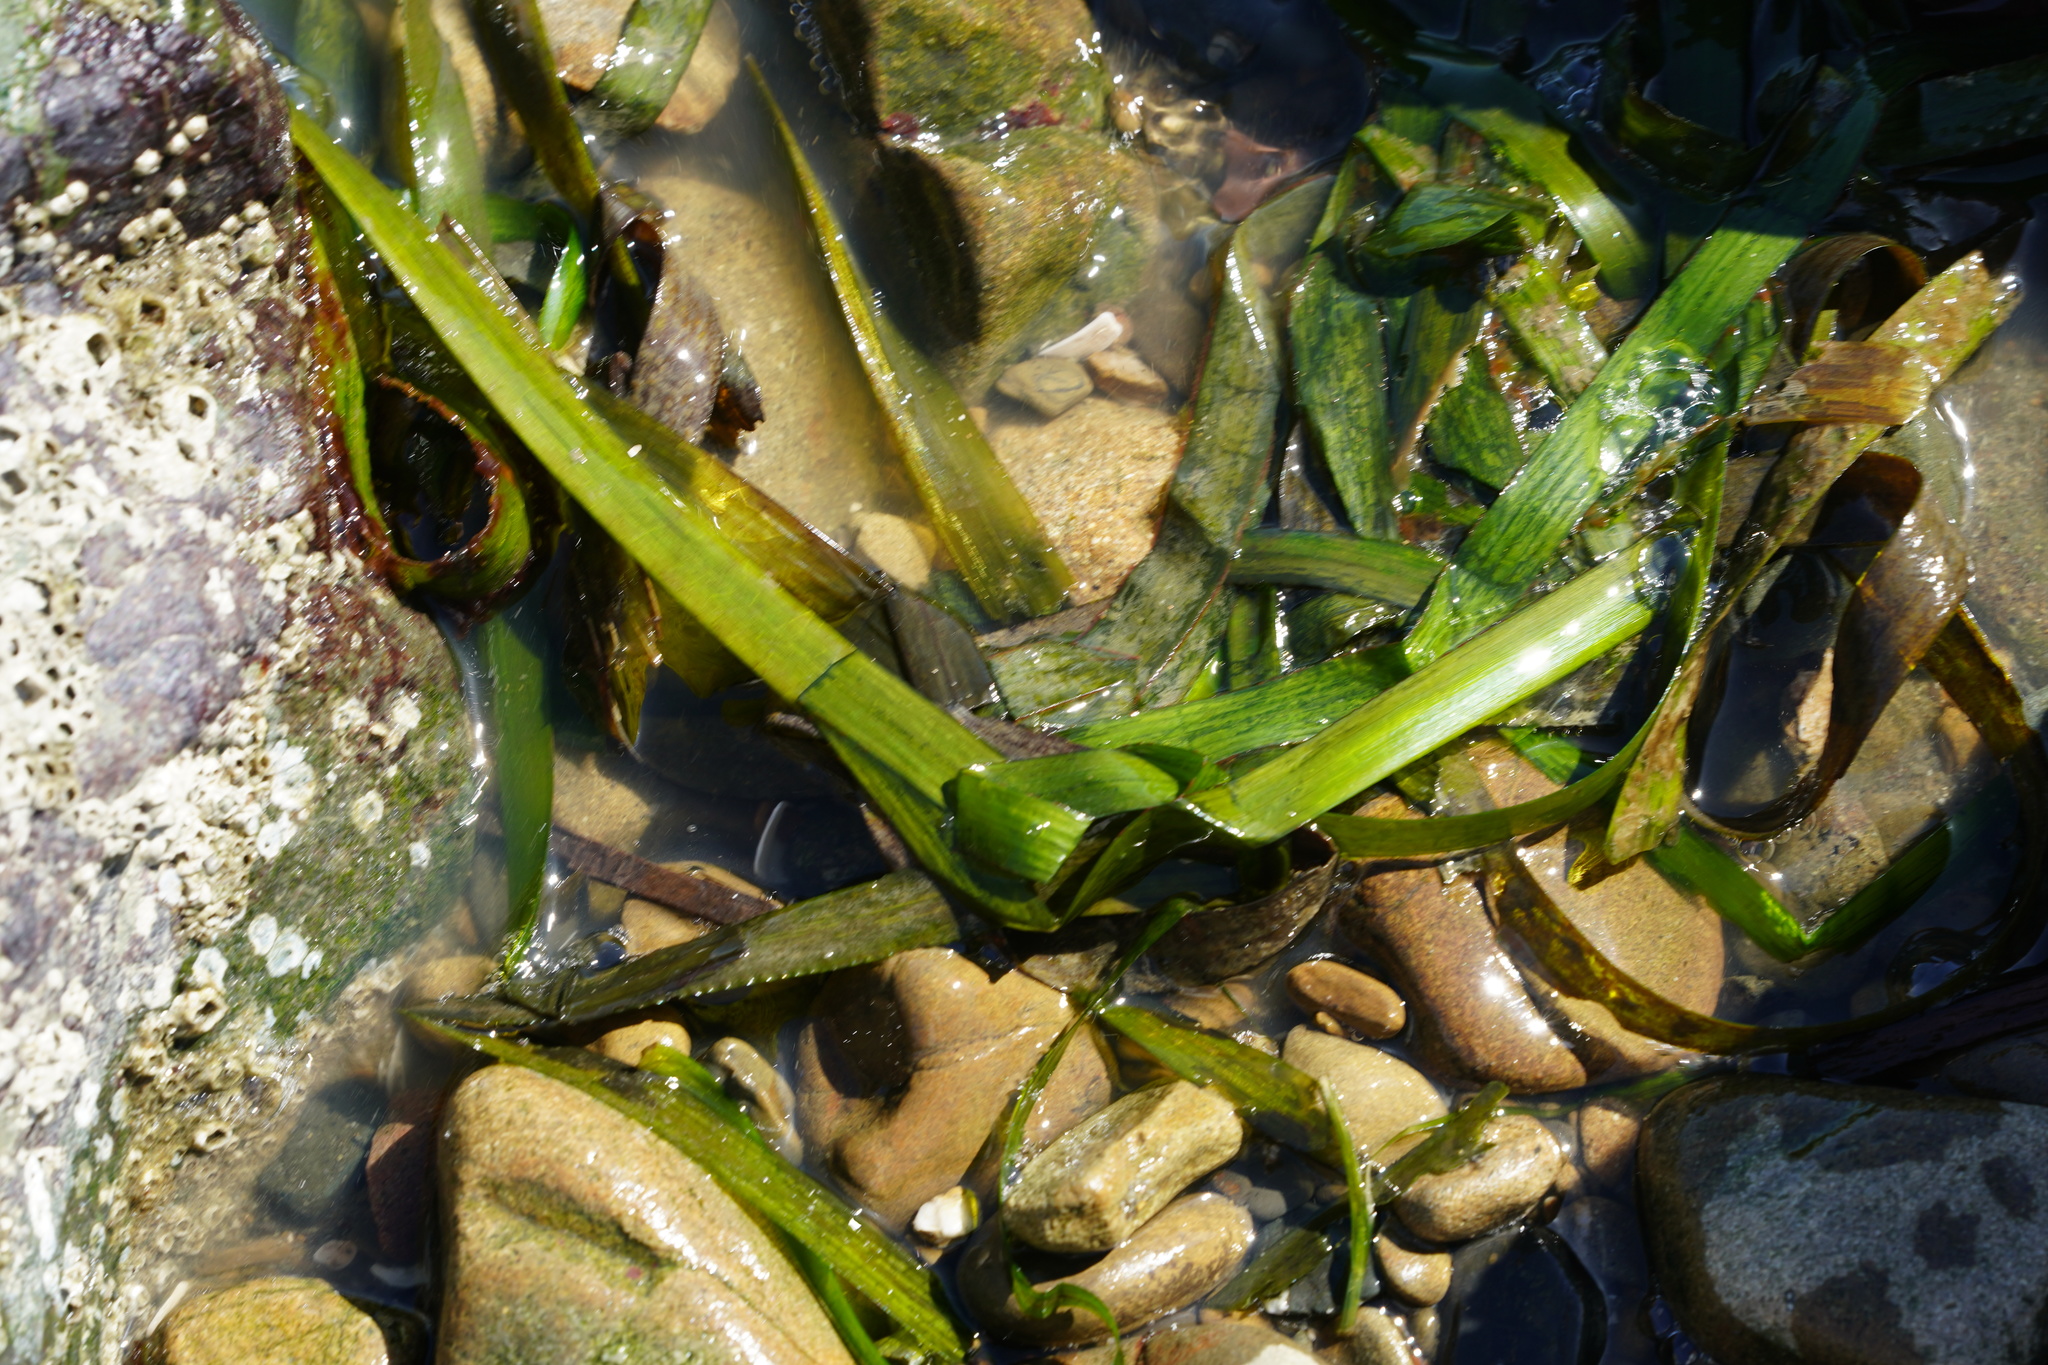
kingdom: Plantae
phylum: Tracheophyta
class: Liliopsida
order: Alismatales
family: Zosteraceae
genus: Zostera
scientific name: Zostera marina
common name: Eelgrass
